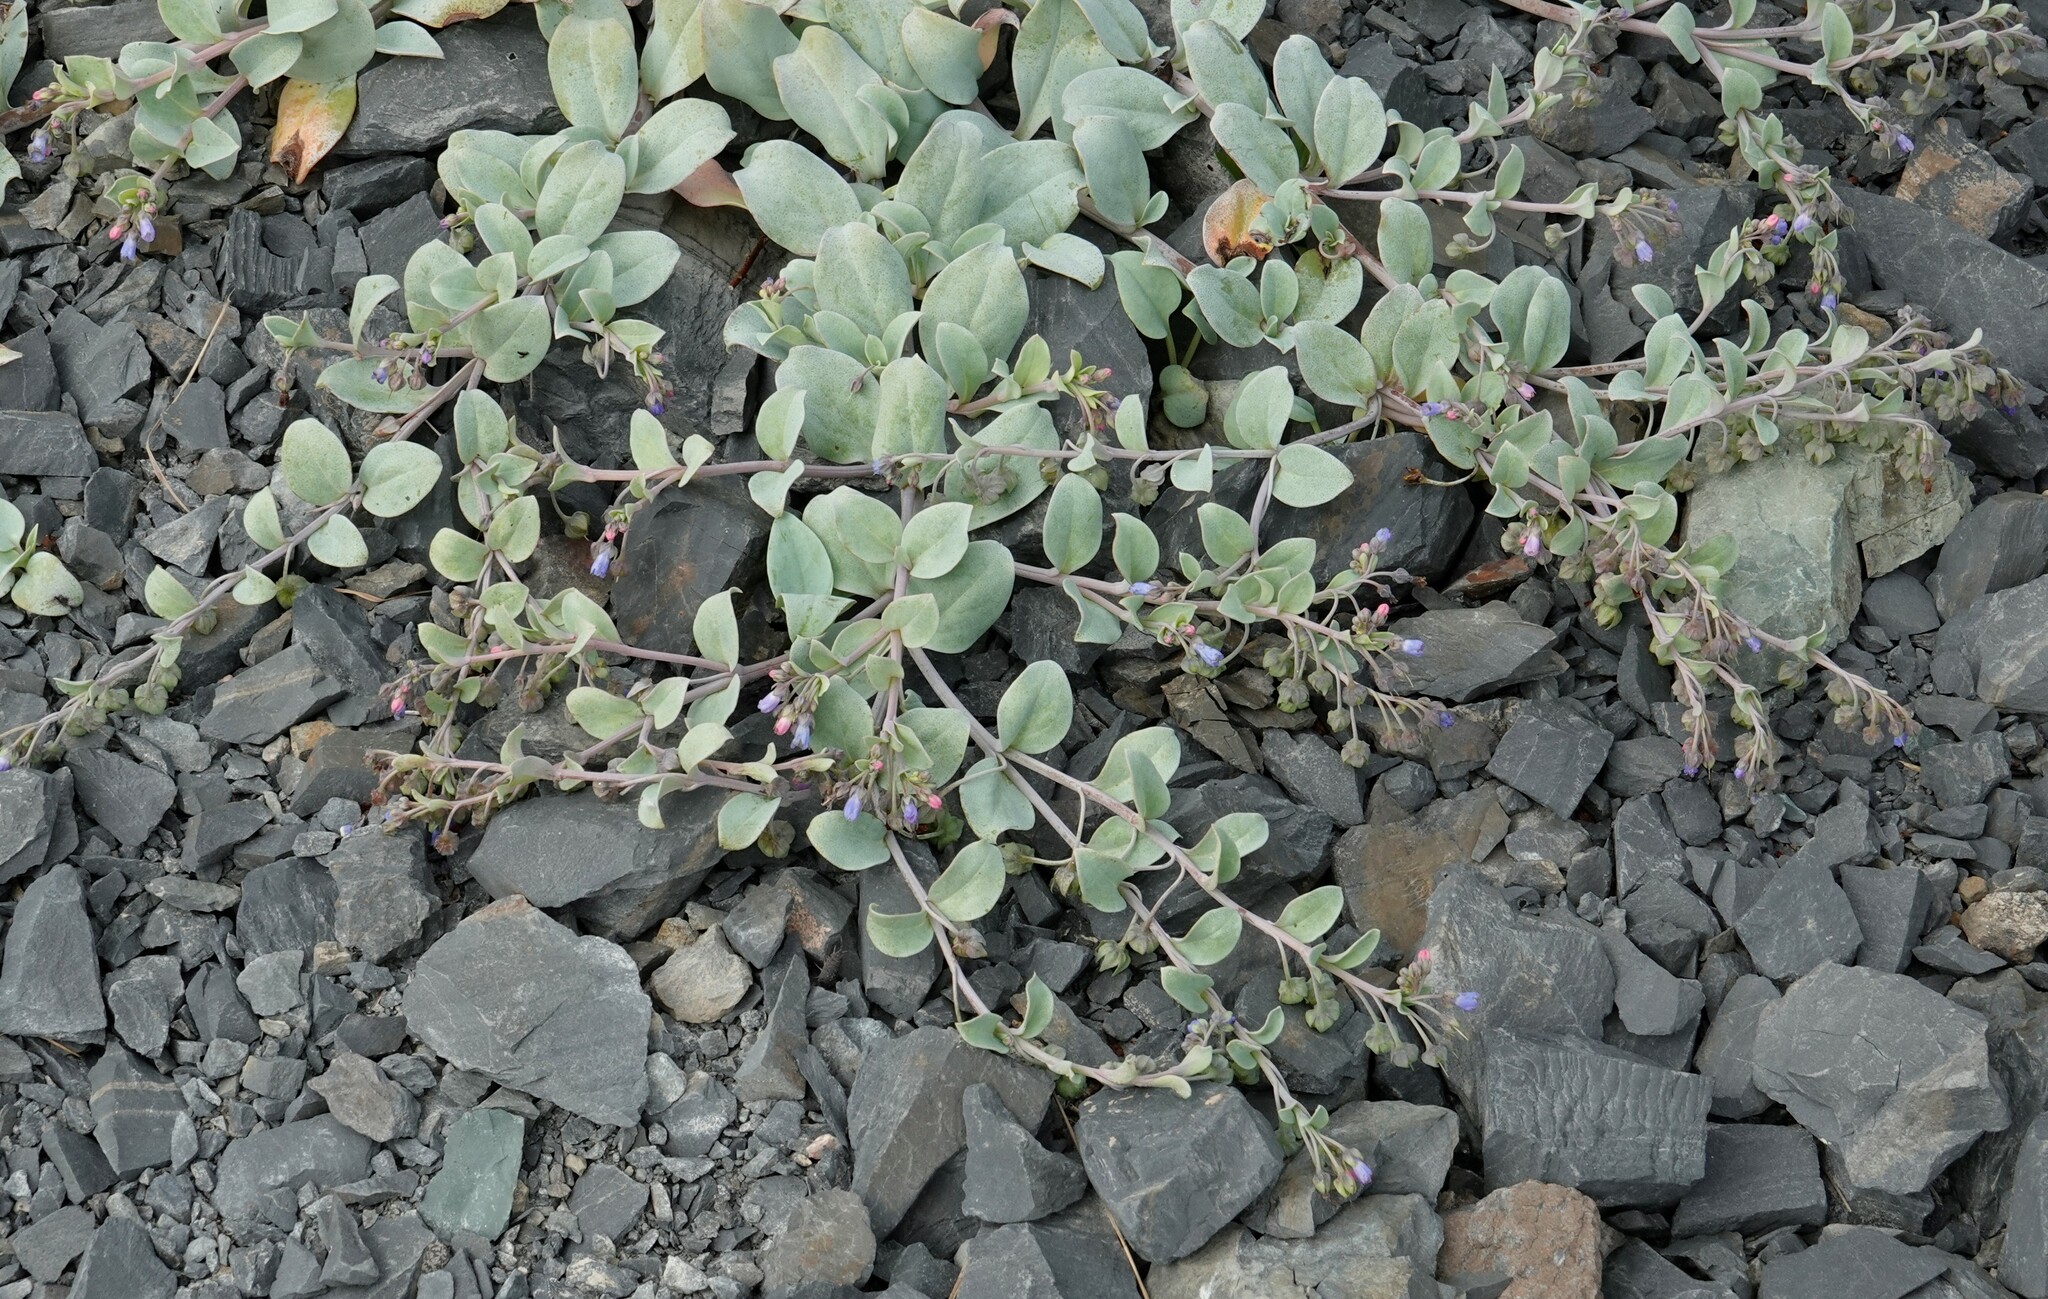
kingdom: Plantae
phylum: Tracheophyta
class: Magnoliopsida
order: Boraginales
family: Boraginaceae
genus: Mertensia
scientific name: Mertensia maritima
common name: Oysterplant
